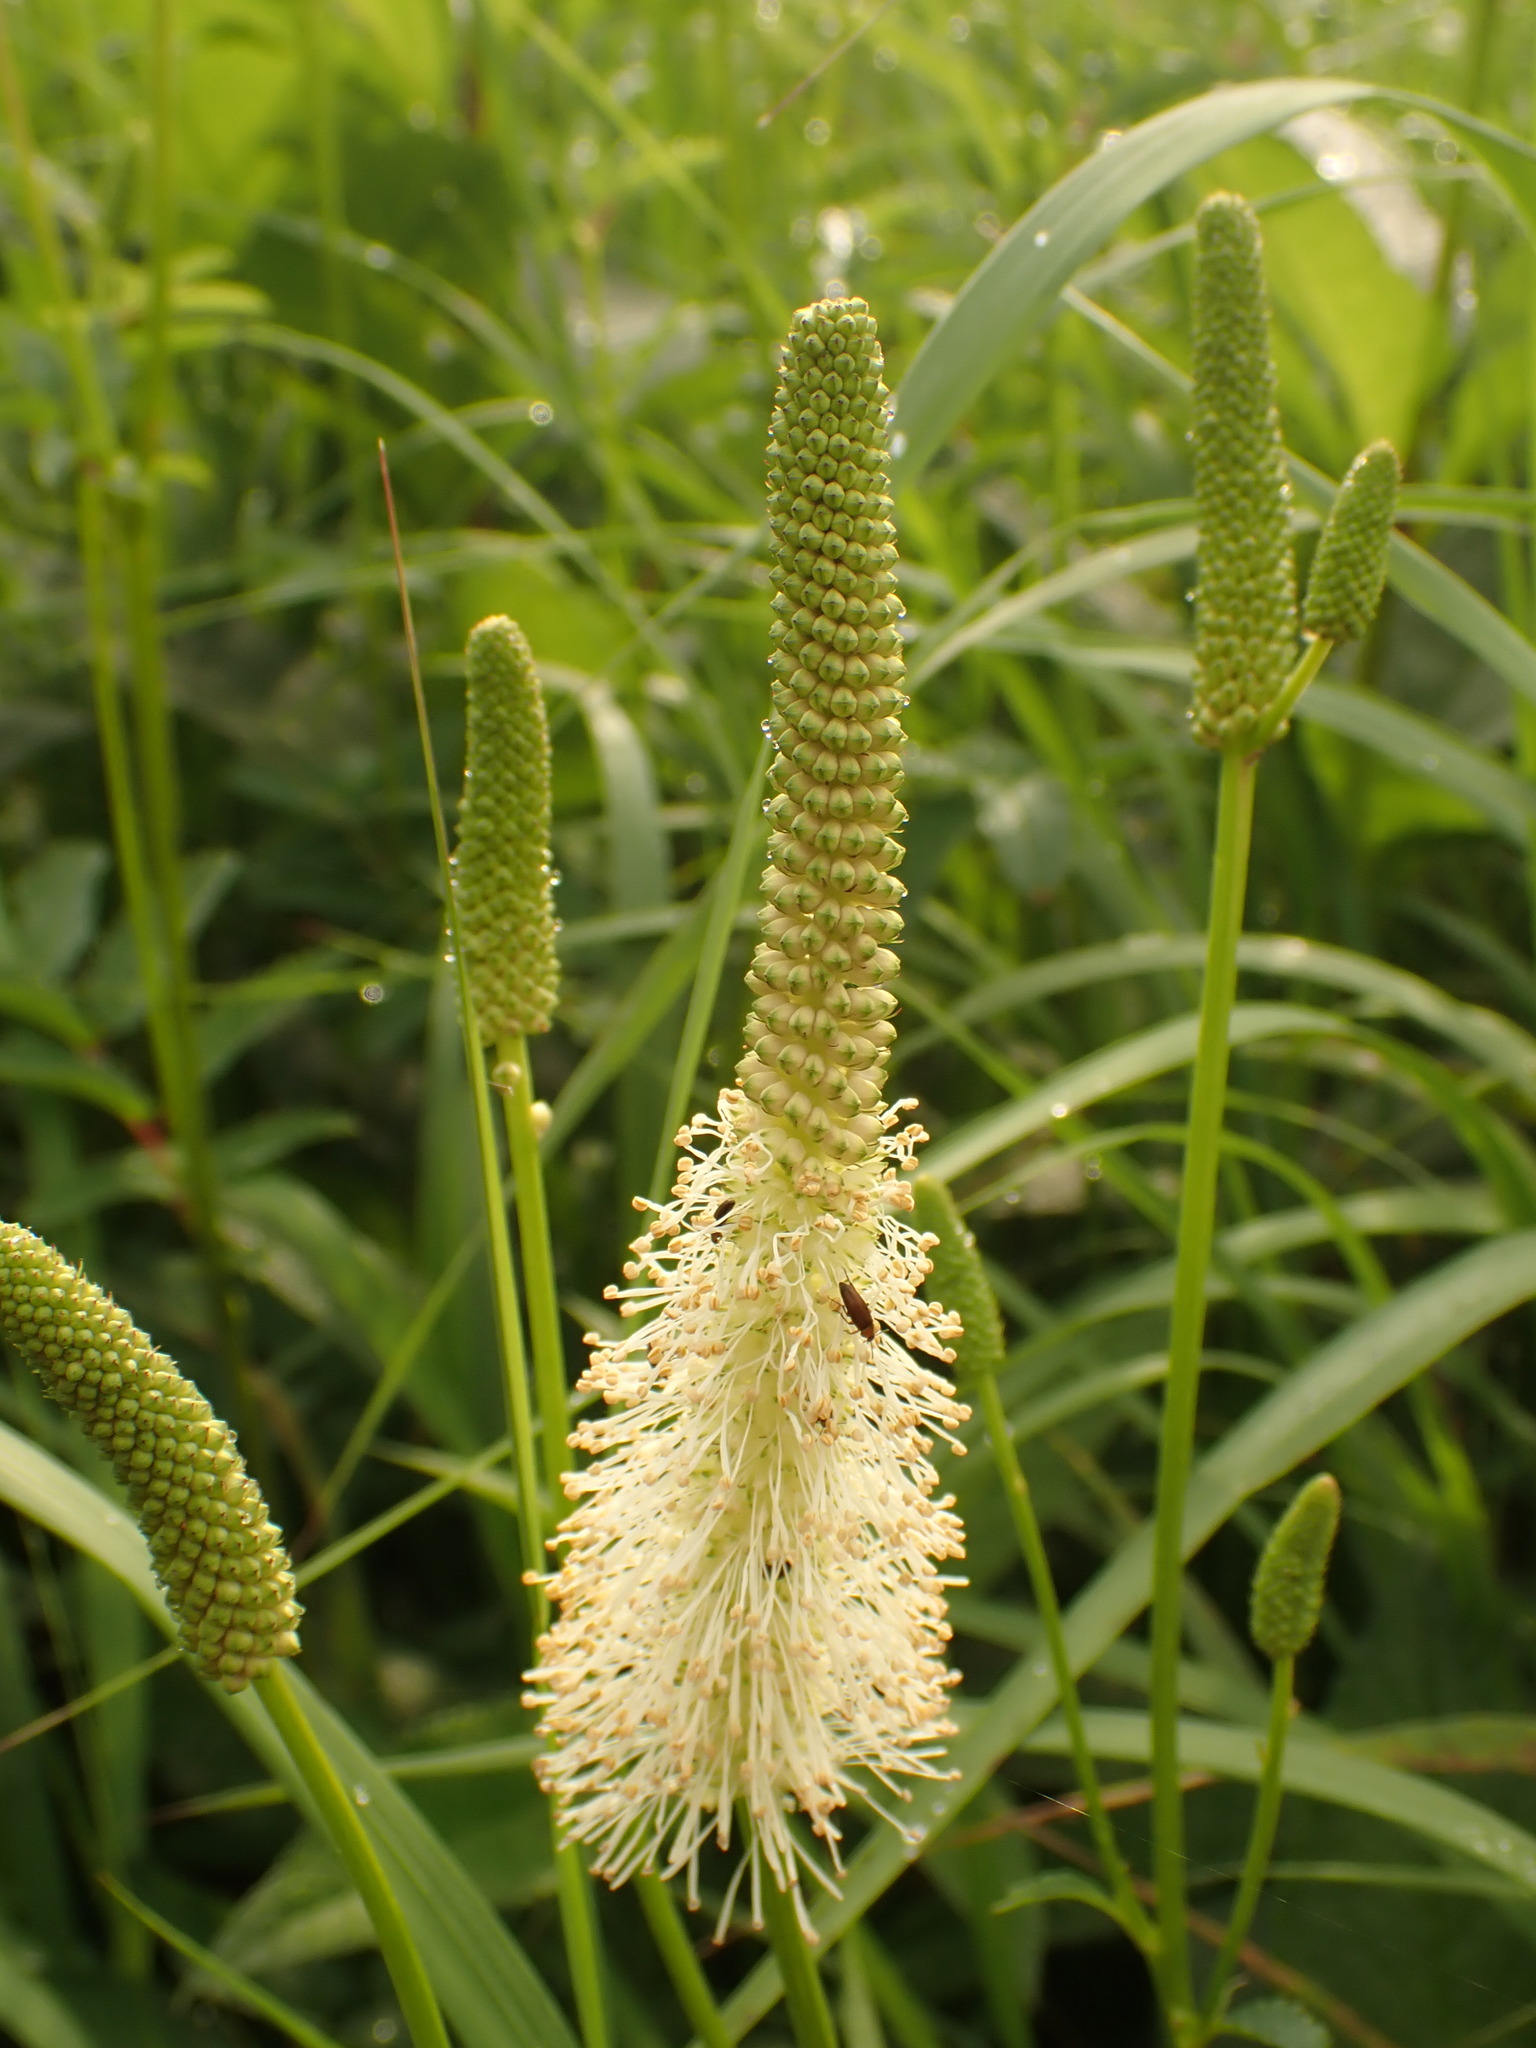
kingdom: Plantae
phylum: Tracheophyta
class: Magnoliopsida
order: Rosales
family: Rosaceae
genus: Sanguisorba
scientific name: Sanguisorba canadensis
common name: White burnet
